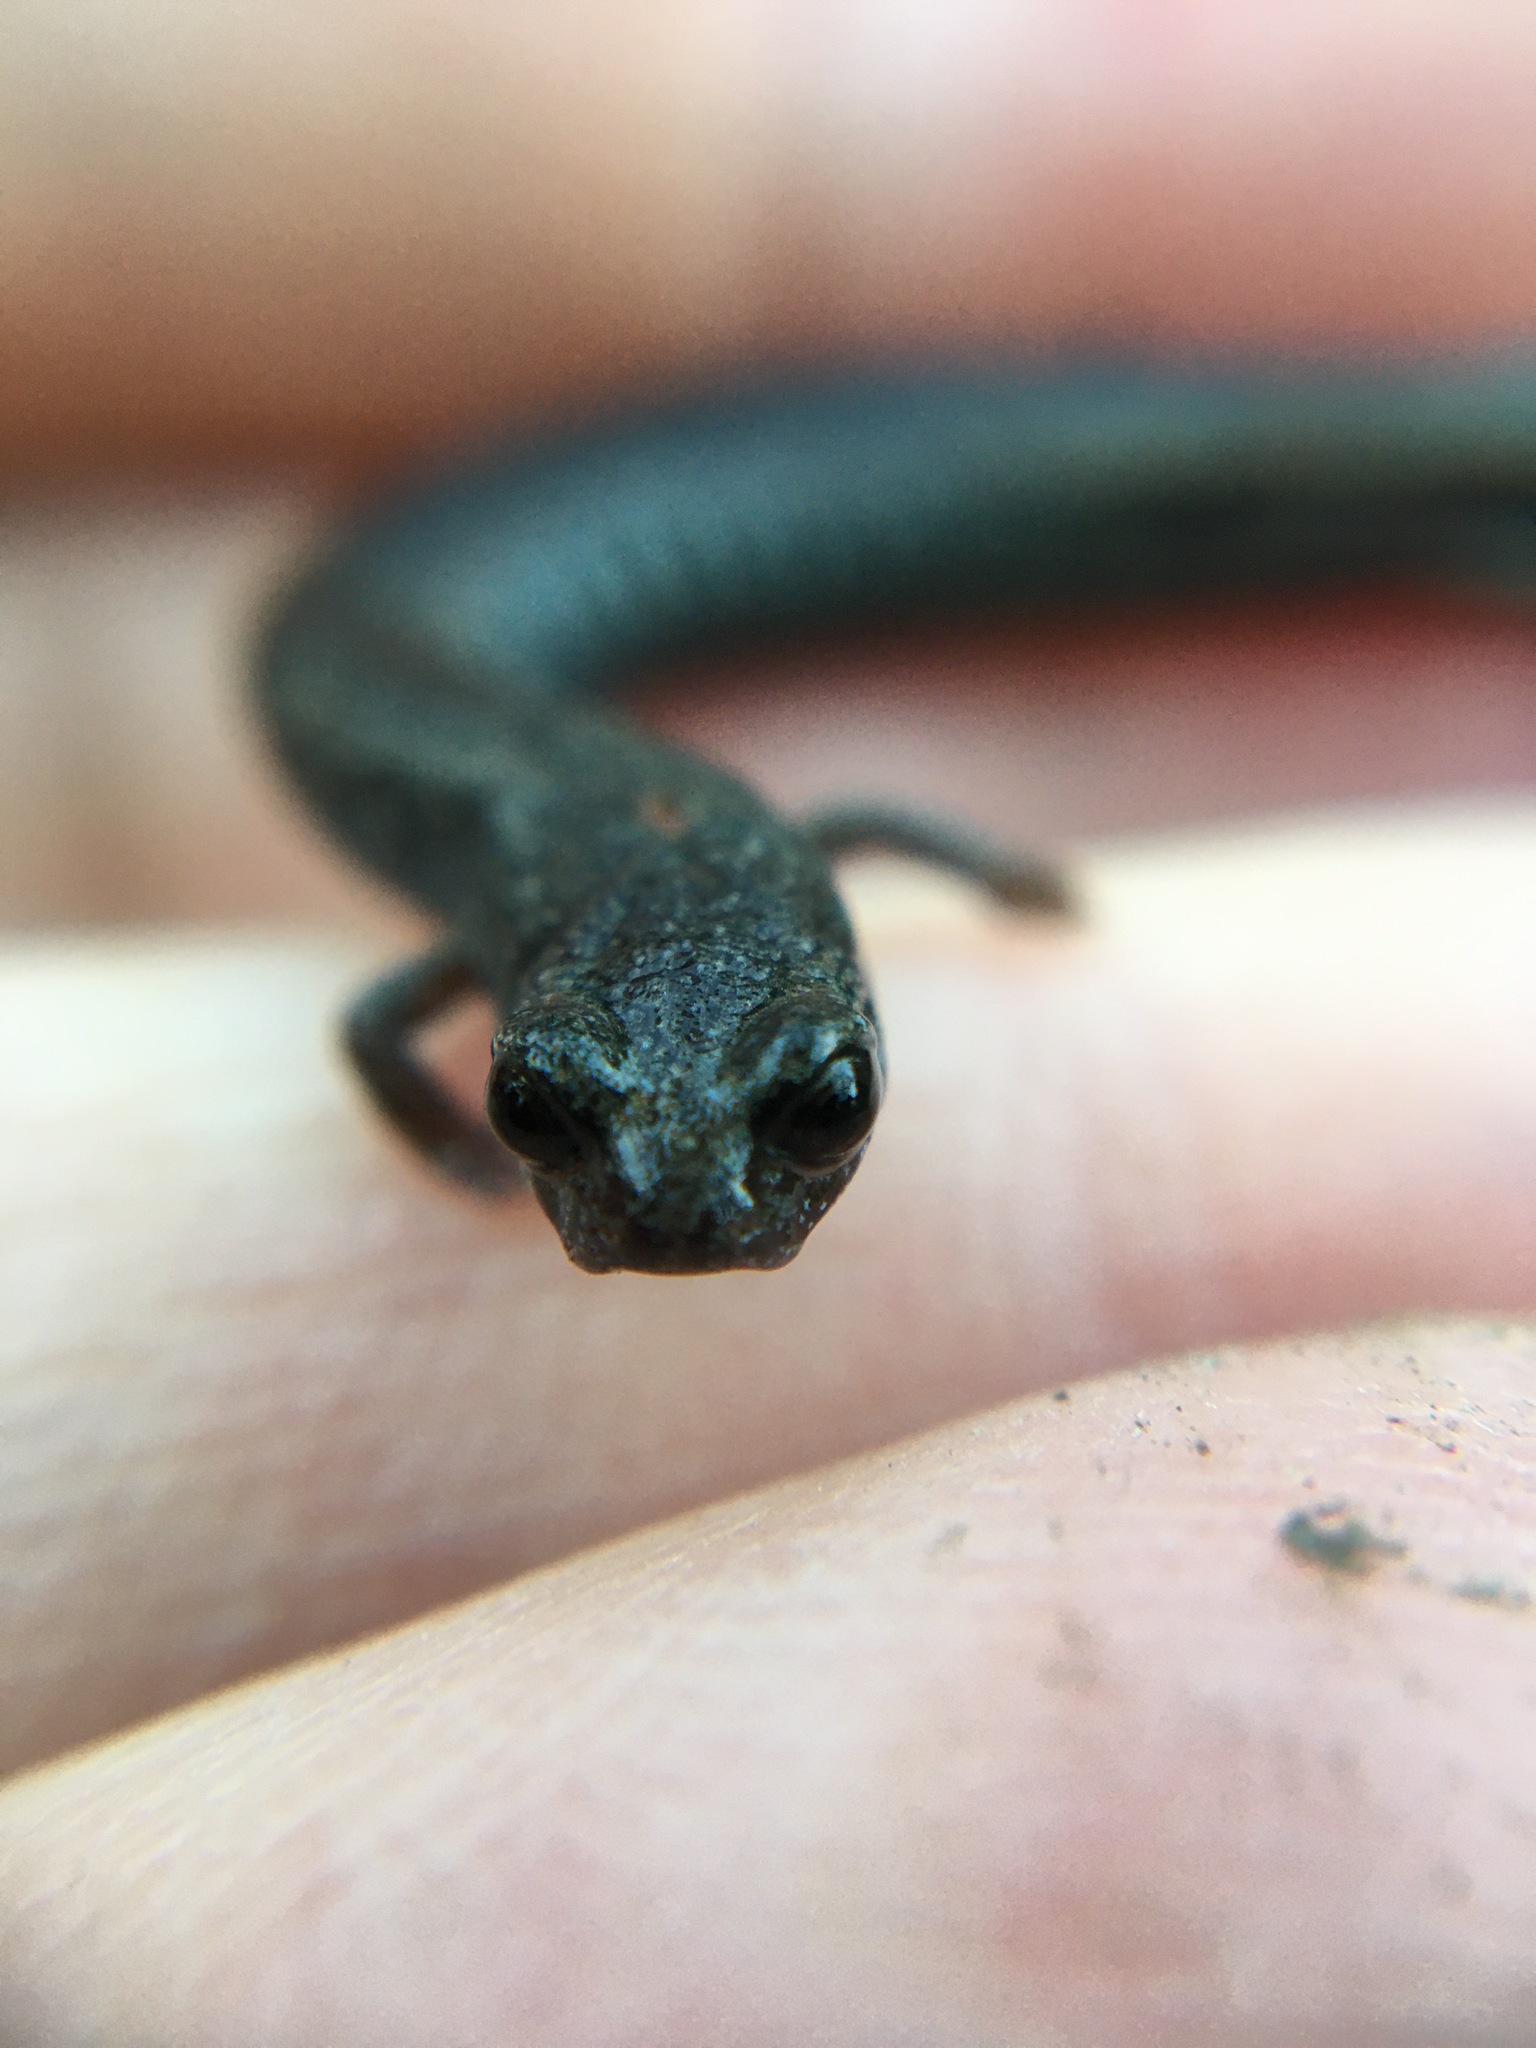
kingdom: Animalia
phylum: Chordata
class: Amphibia
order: Caudata
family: Plethodontidae
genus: Batrachoseps
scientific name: Batrachoseps nigriventris
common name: Black-bellied slender salamander
